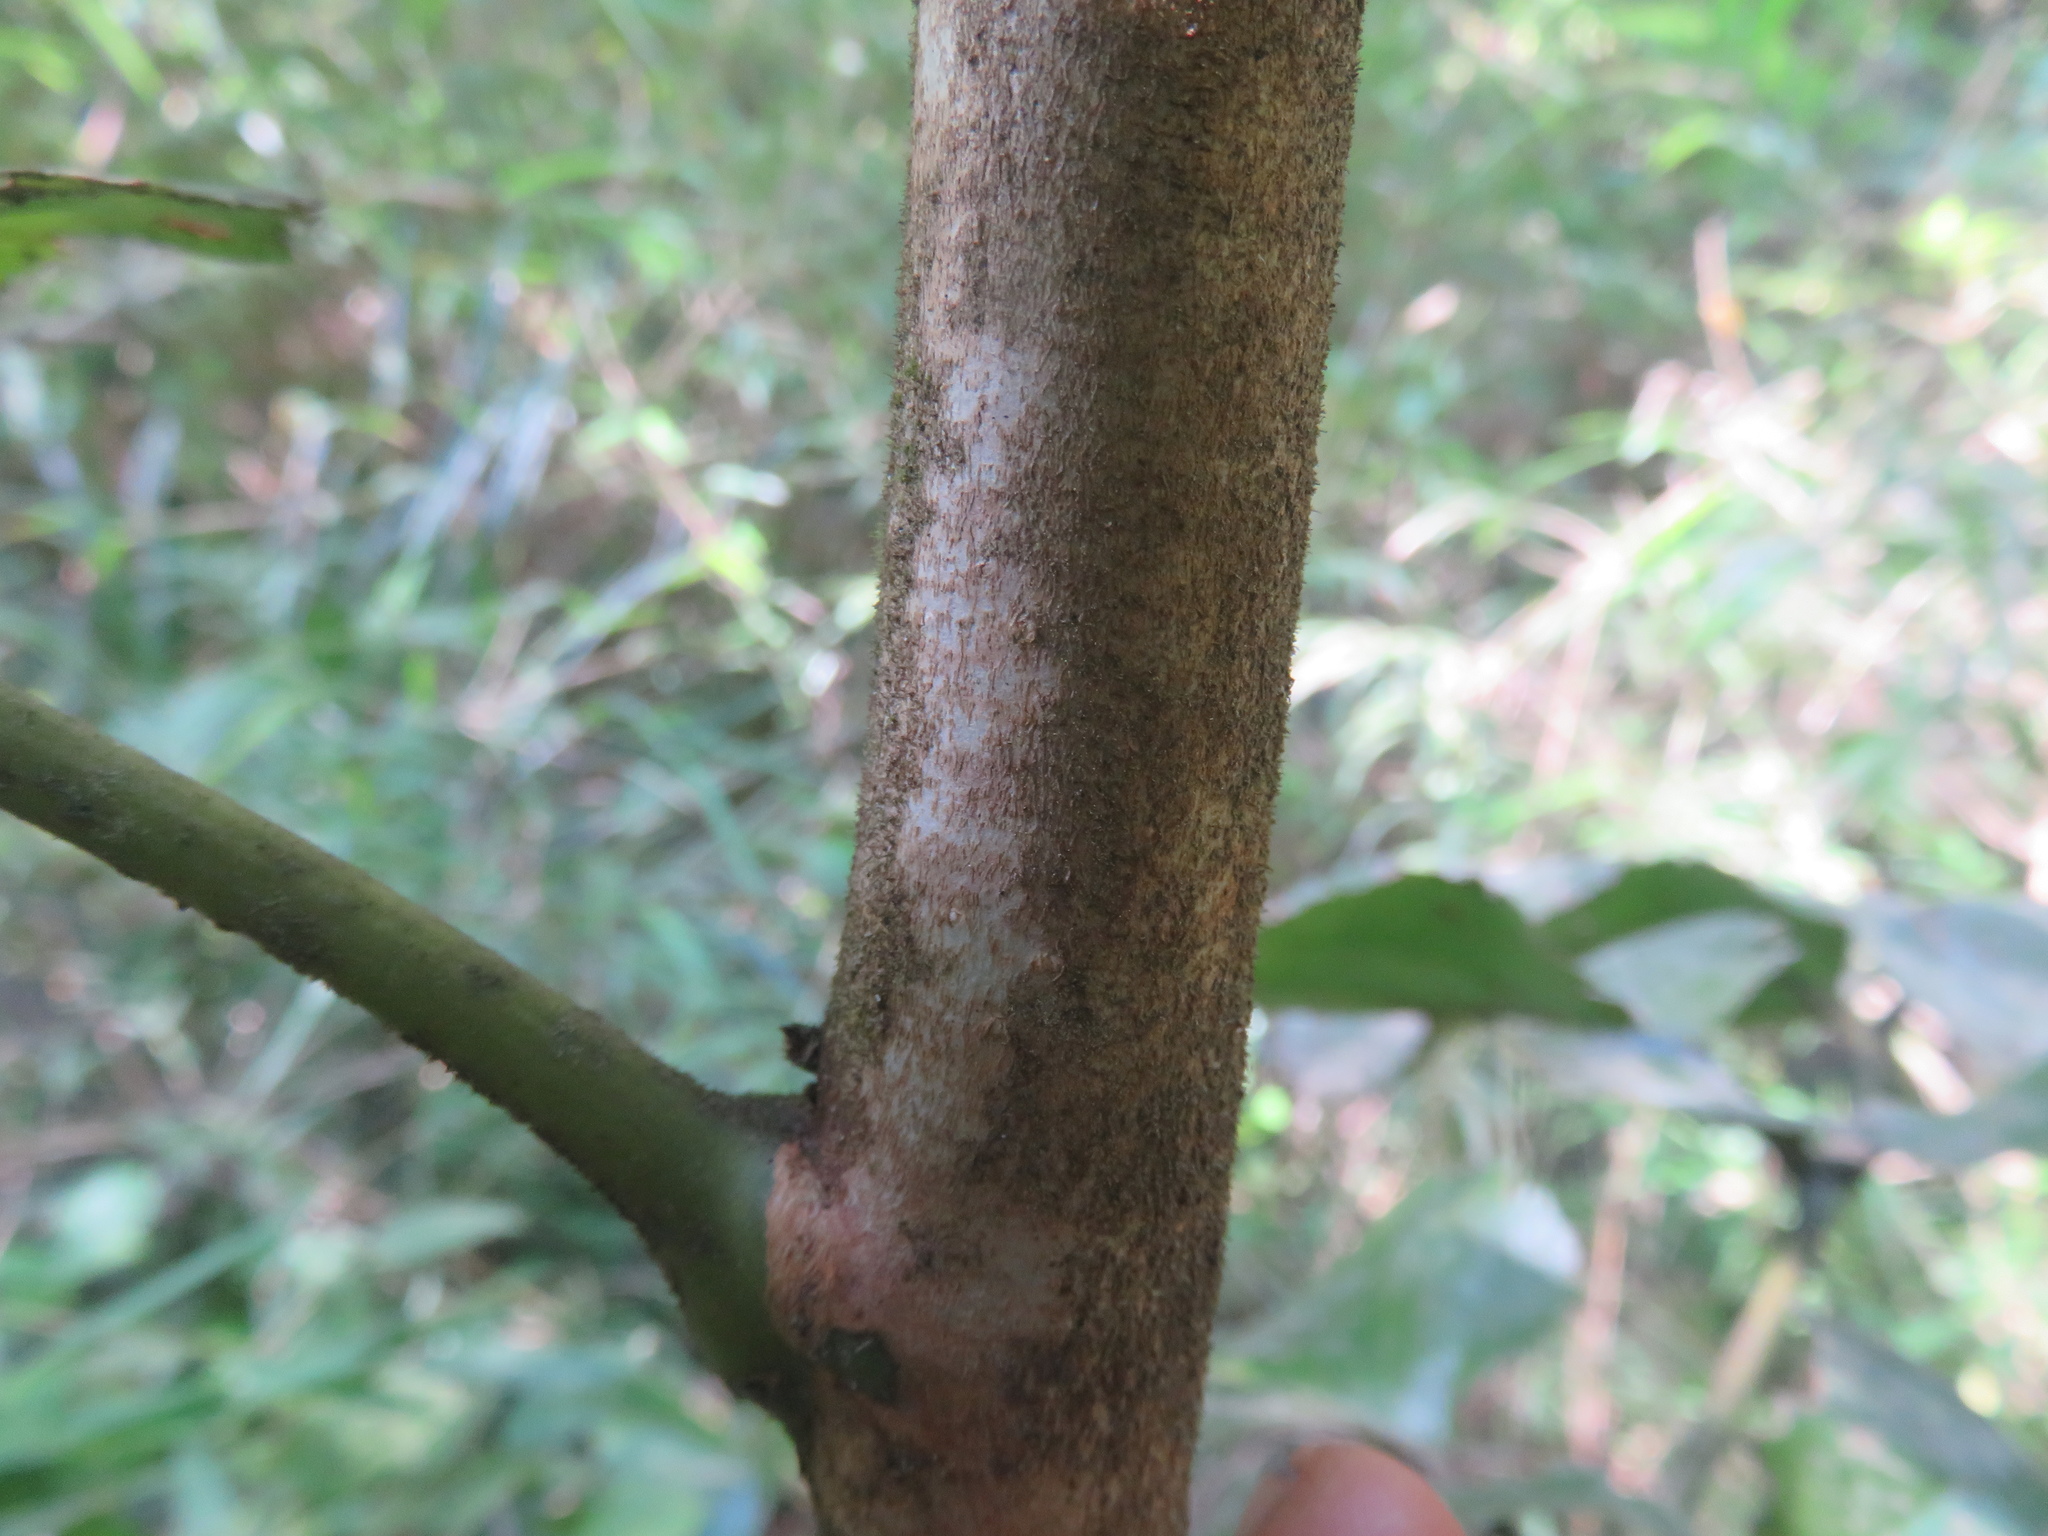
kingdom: Plantae
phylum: Tracheophyta
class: Magnoliopsida
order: Proteales
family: Proteaceae
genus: Gevuina
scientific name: Gevuina avellana
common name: Chilean hazel
